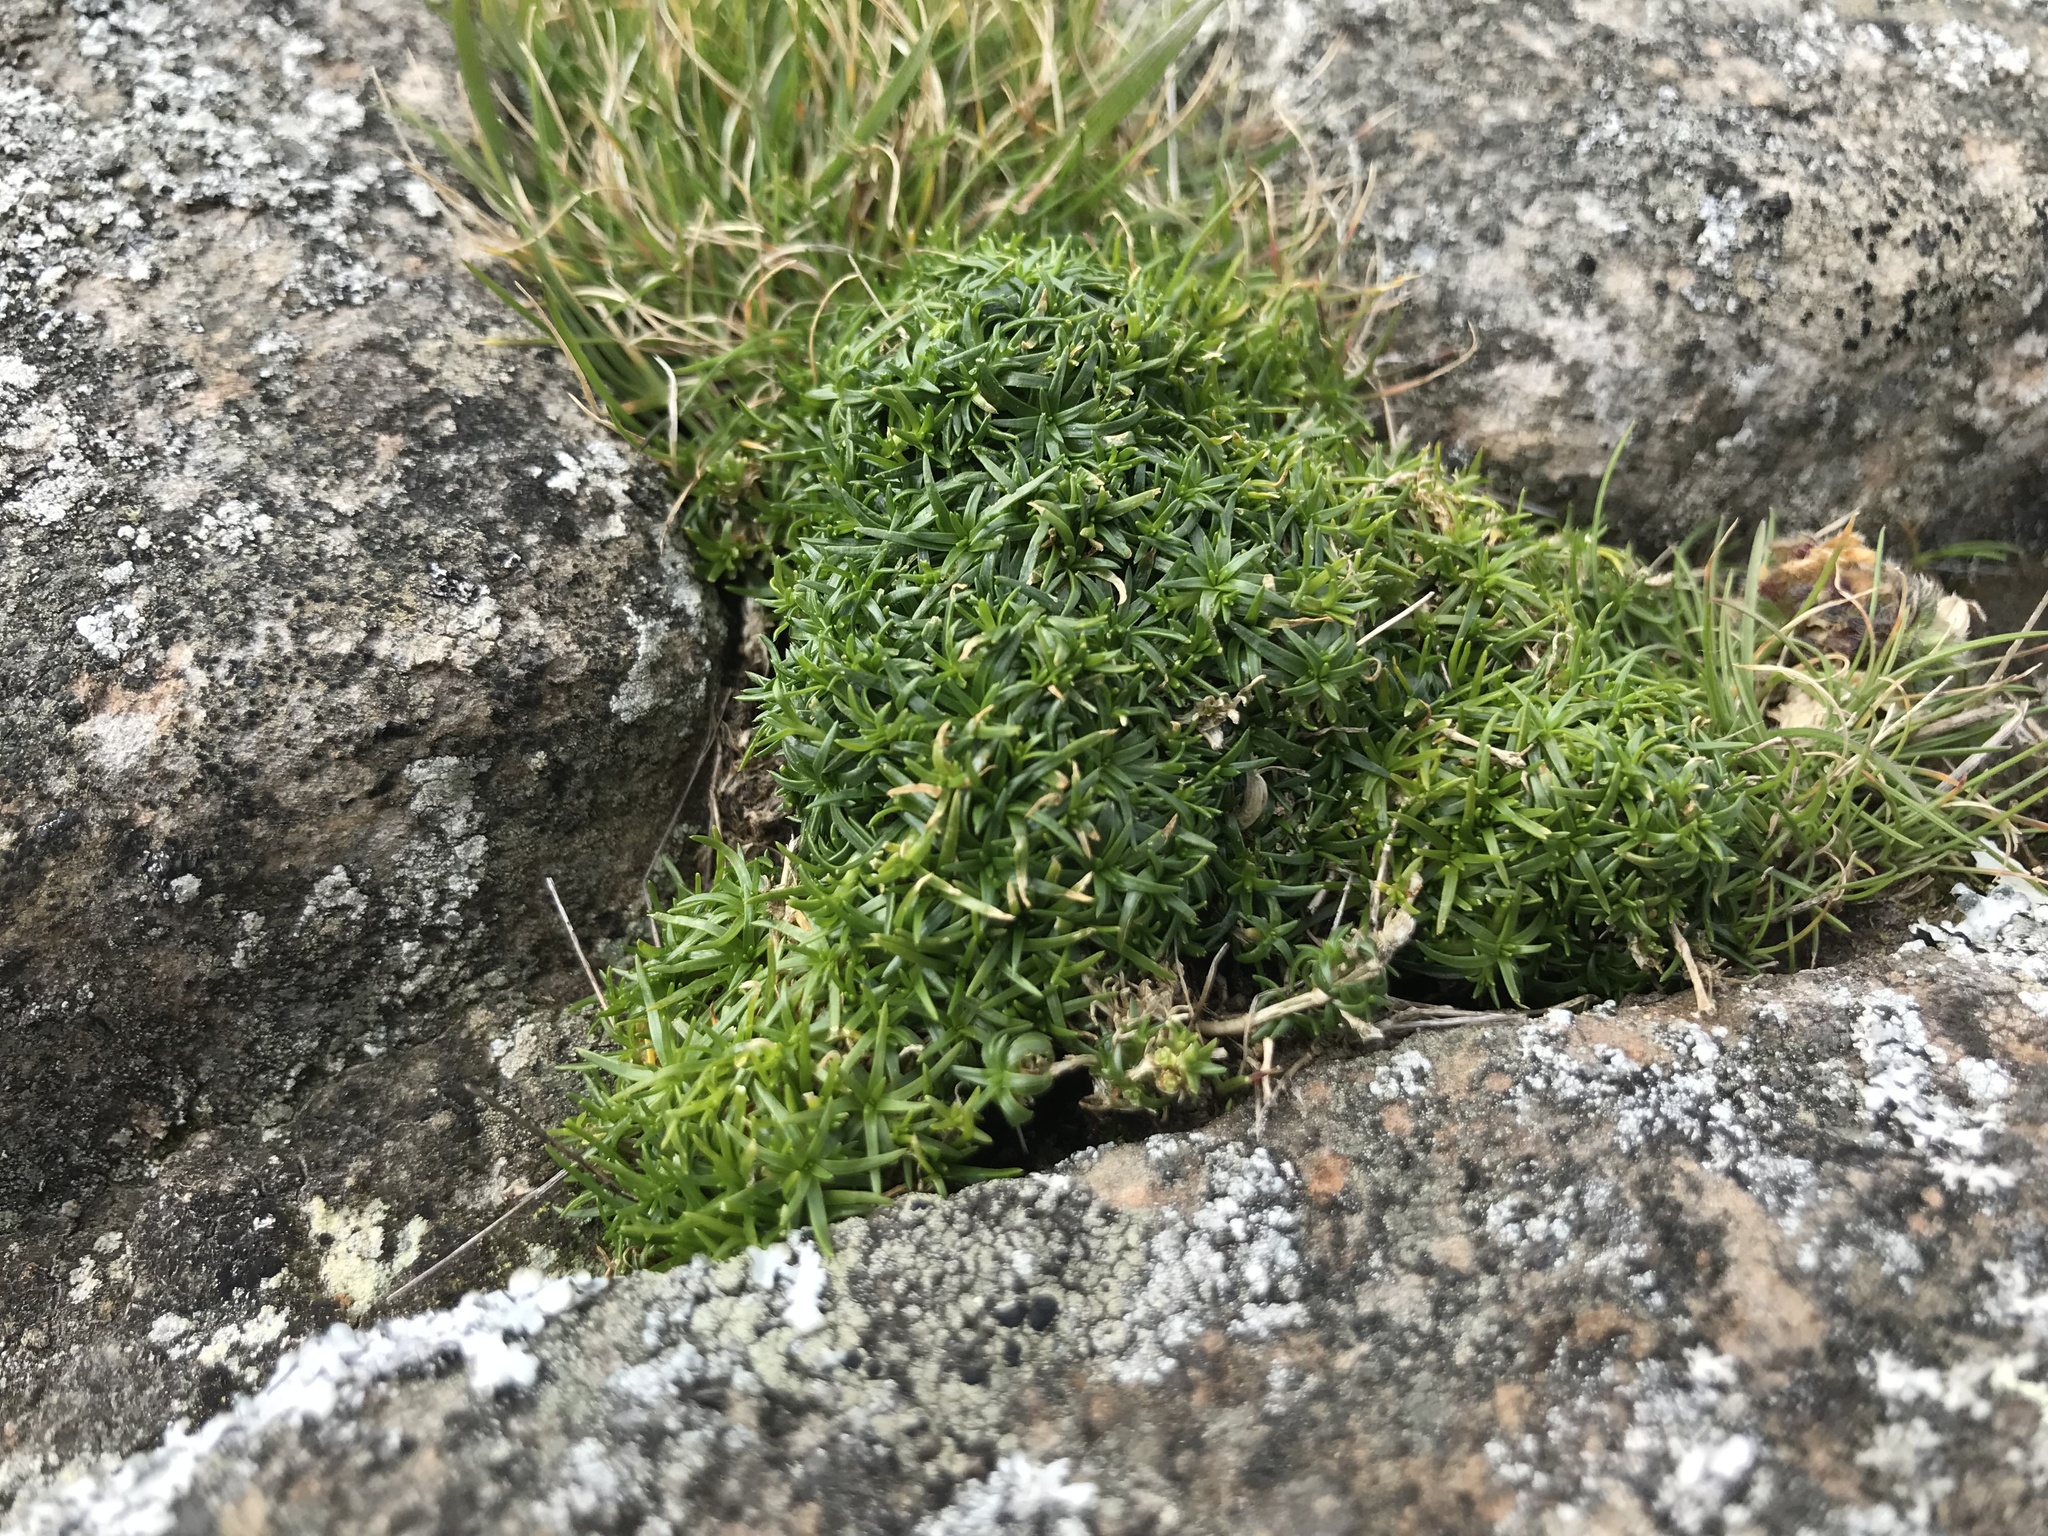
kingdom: Plantae
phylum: Tracheophyta
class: Magnoliopsida
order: Caryophyllales
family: Caryophyllaceae
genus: Sagina
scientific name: Sagina procumbens
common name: Procumbent pearlwort
